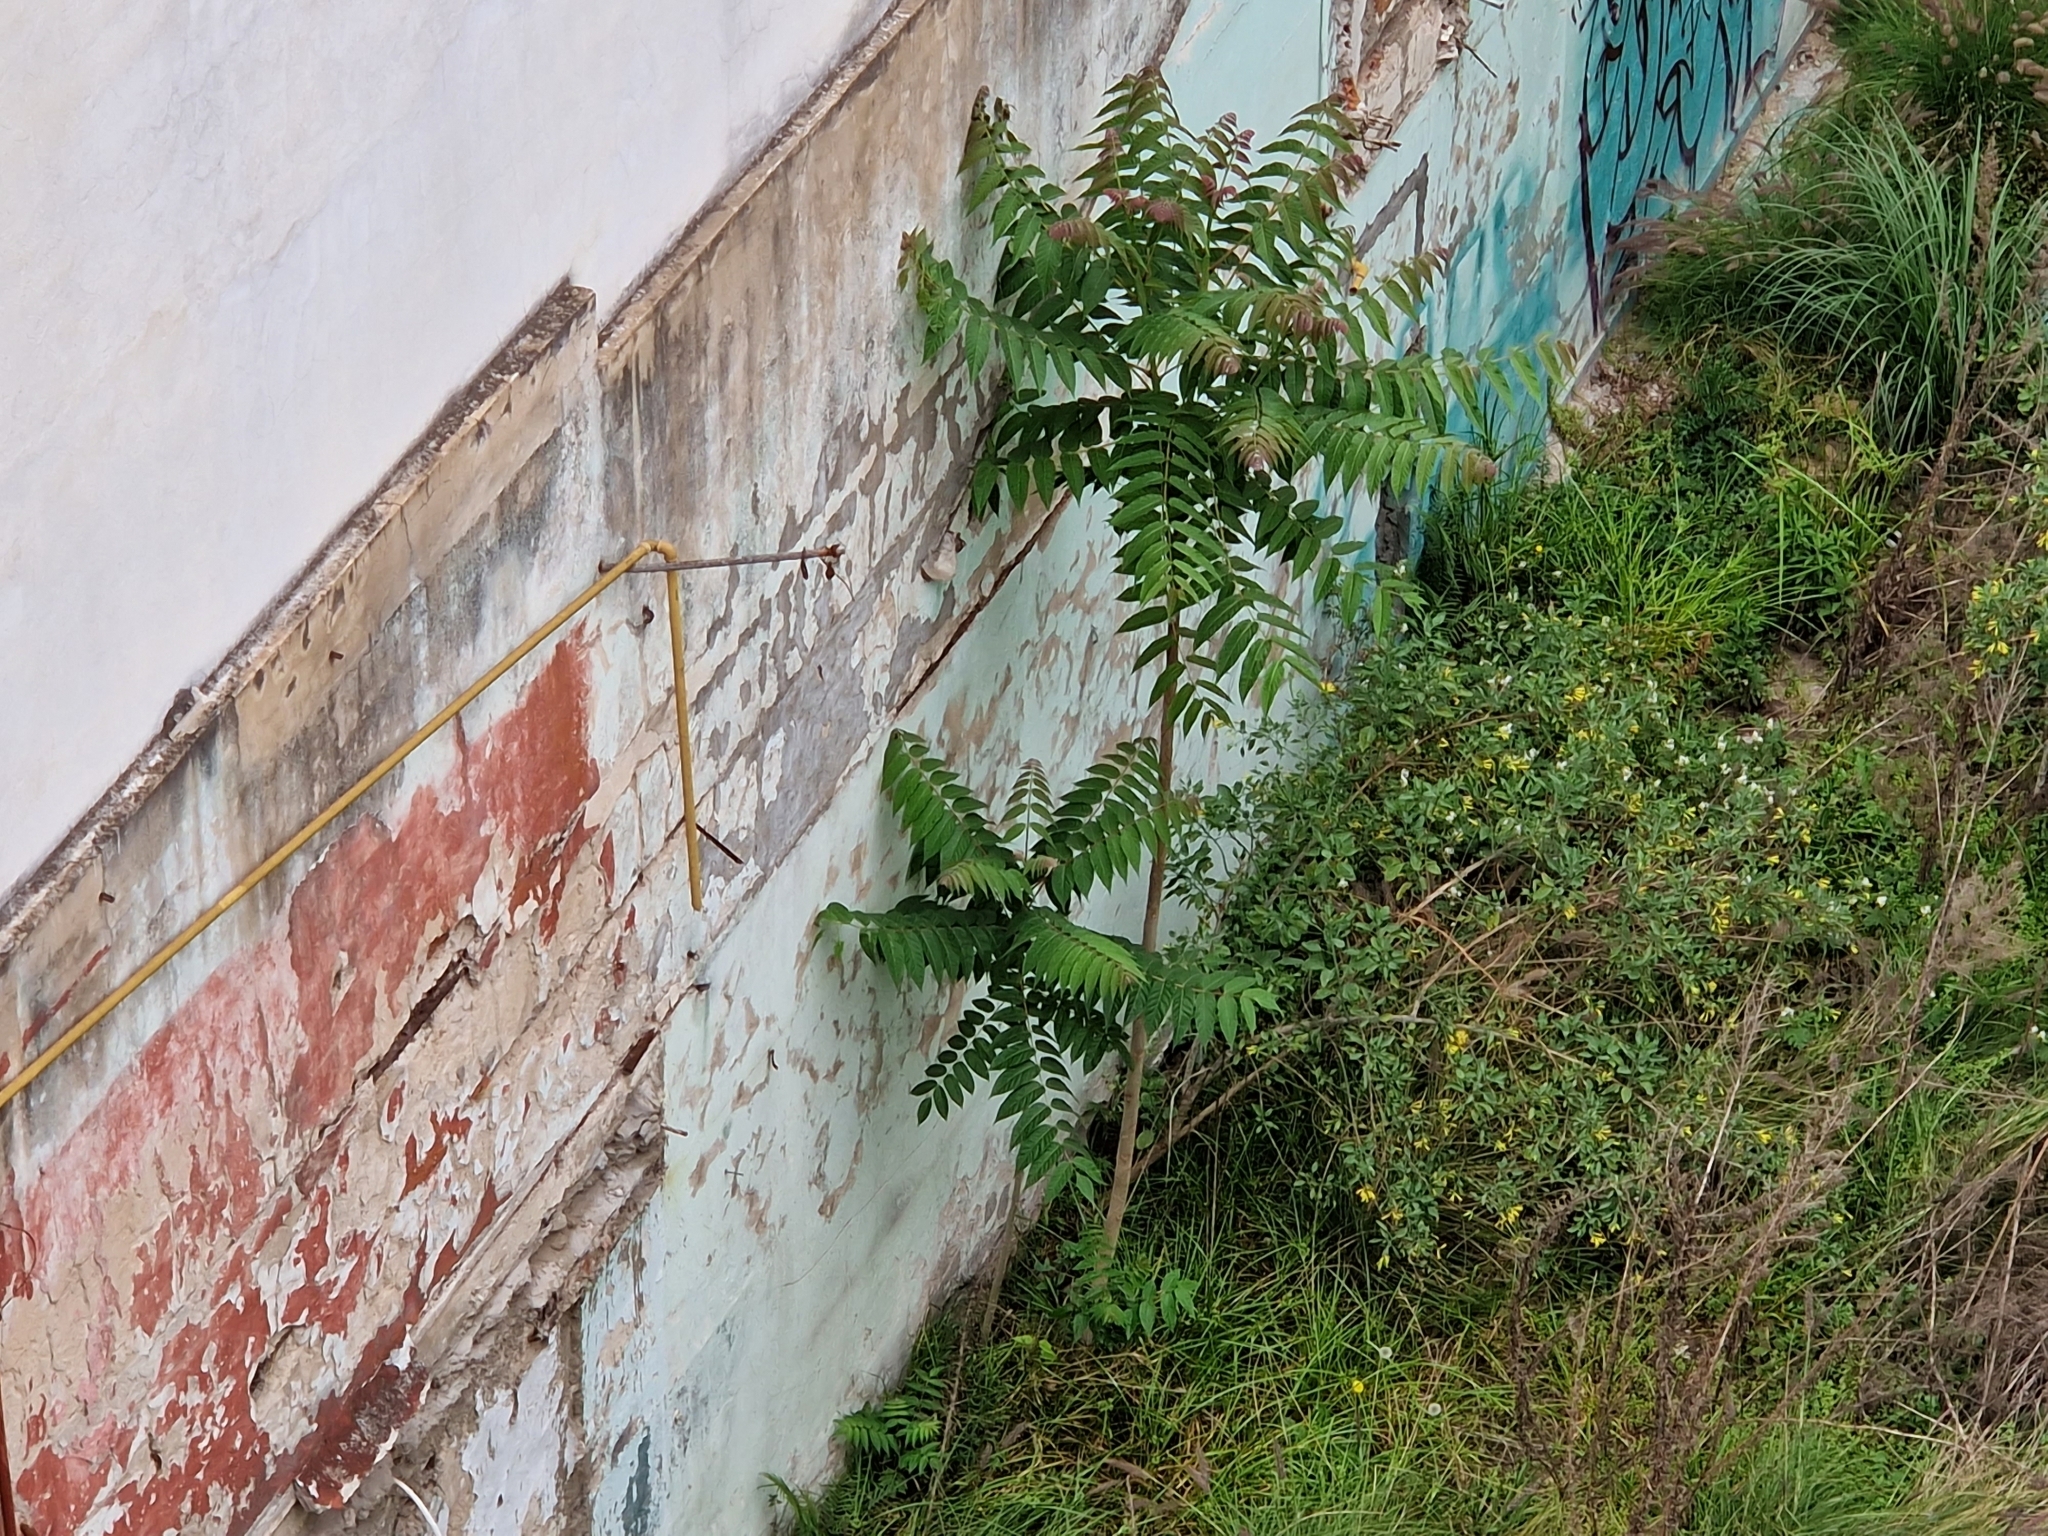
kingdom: Plantae
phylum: Tracheophyta
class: Magnoliopsida
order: Sapindales
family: Simaroubaceae
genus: Ailanthus
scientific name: Ailanthus altissima
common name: Tree-of-heaven
